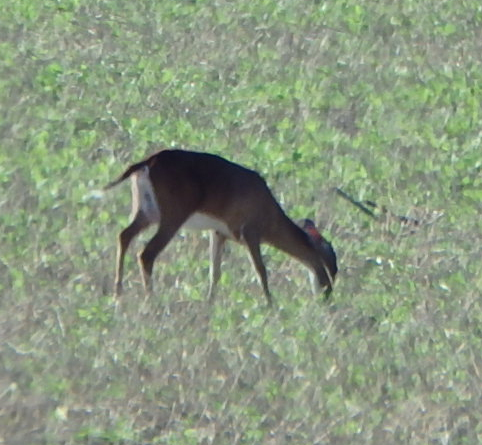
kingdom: Animalia
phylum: Chordata
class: Mammalia
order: Artiodactyla
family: Cervidae
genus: Odocoileus
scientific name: Odocoileus virginianus
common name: White-tailed deer
